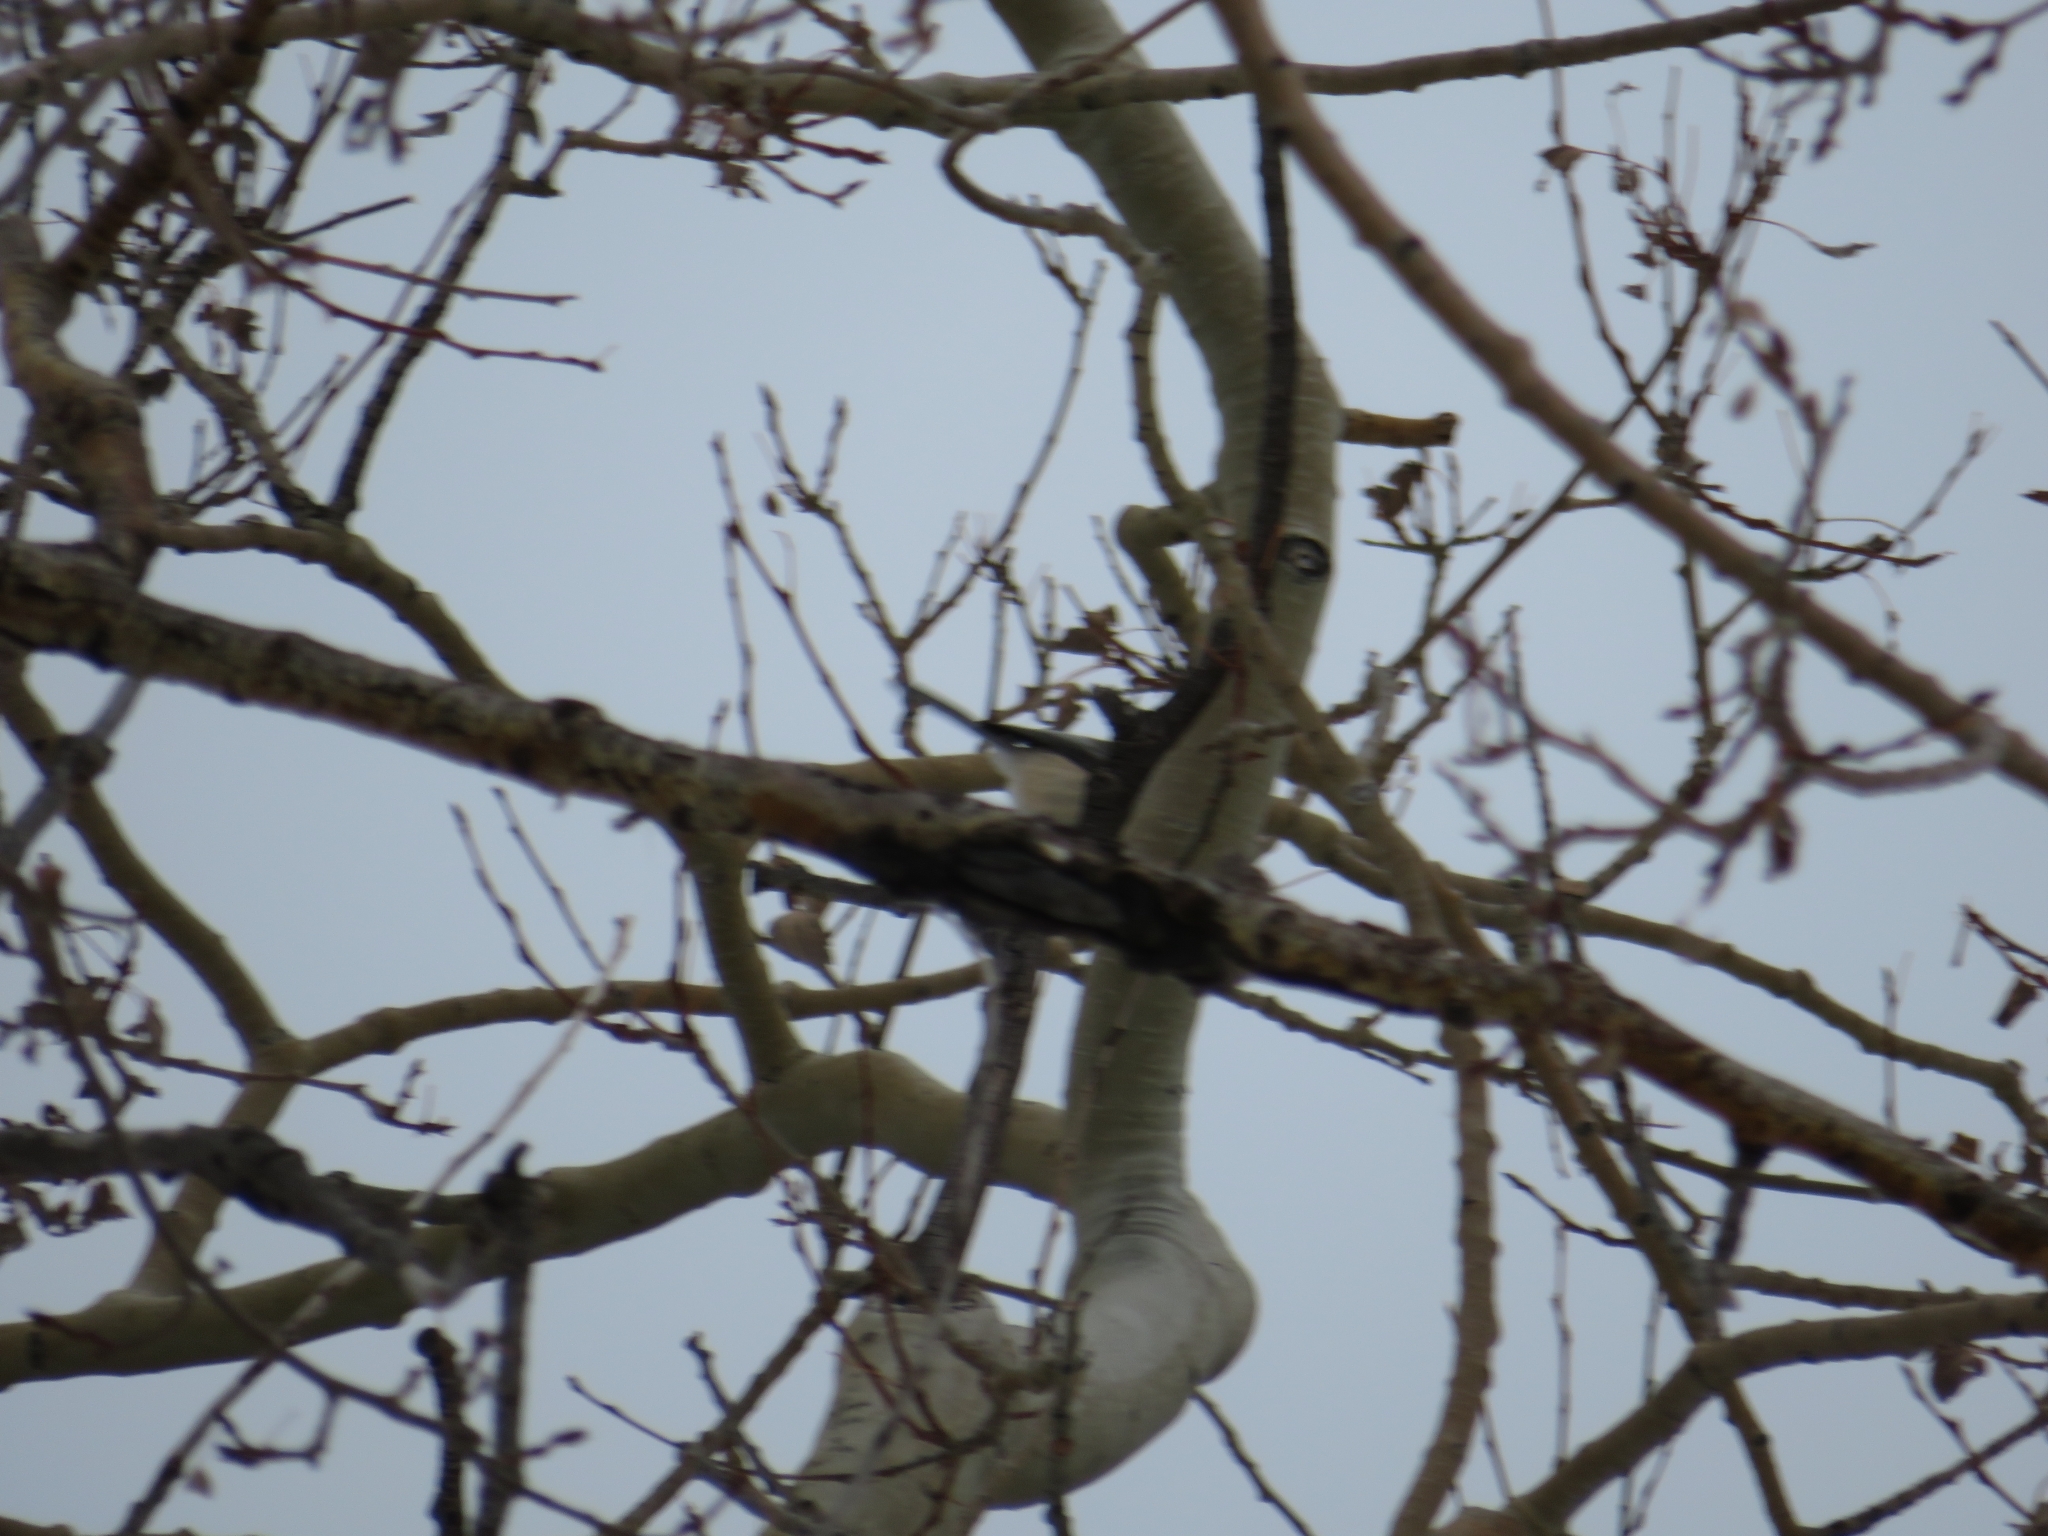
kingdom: Animalia
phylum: Chordata
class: Aves
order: Passeriformes
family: Paridae
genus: Poecile
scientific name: Poecile atricapillus
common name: Black-capped chickadee
